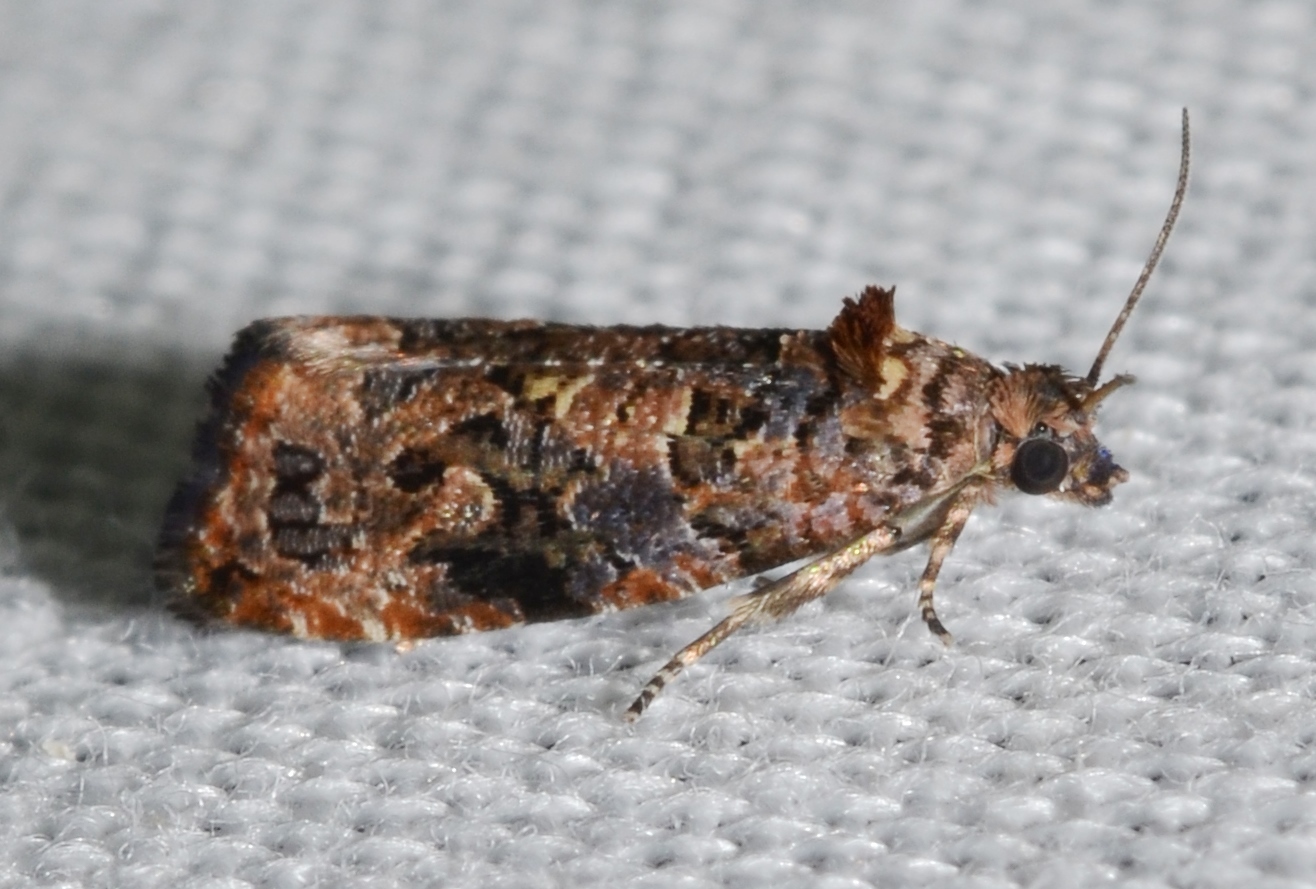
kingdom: Animalia
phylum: Arthropoda
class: Insecta
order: Lepidoptera
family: Tortricidae
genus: Endothenia
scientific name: Endothenia hebesana
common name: Verbena bud moth
